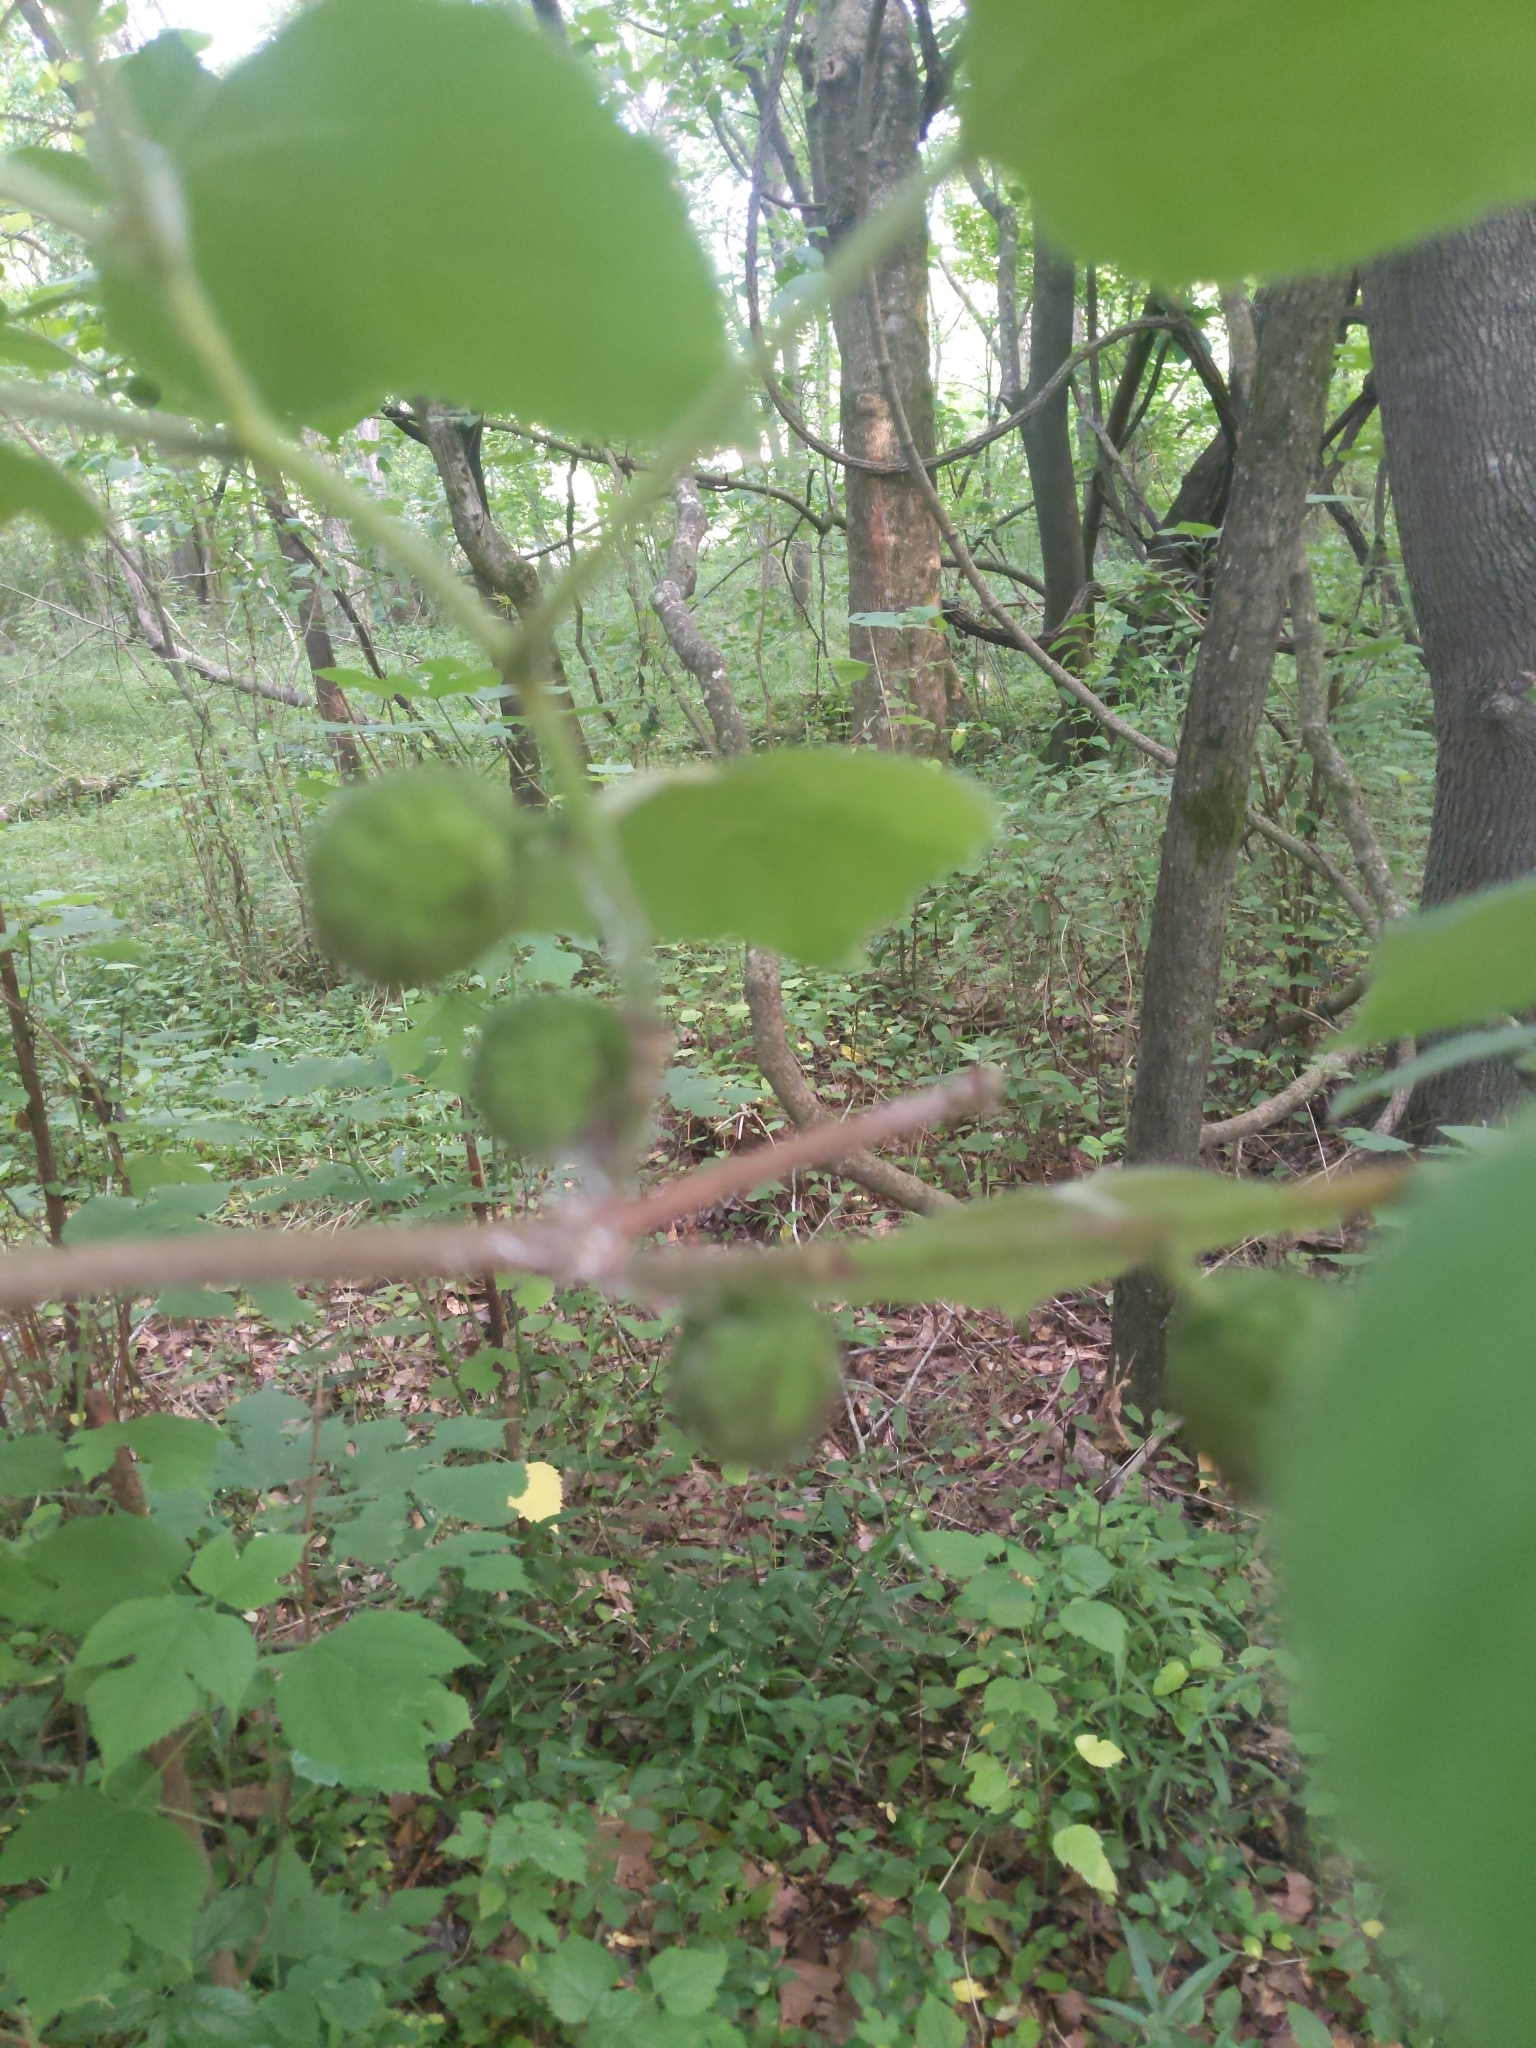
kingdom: Plantae
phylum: Tracheophyta
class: Magnoliopsida
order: Rosales
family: Moraceae
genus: Broussonetia
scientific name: Broussonetia papyrifera
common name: Paper mulberry
